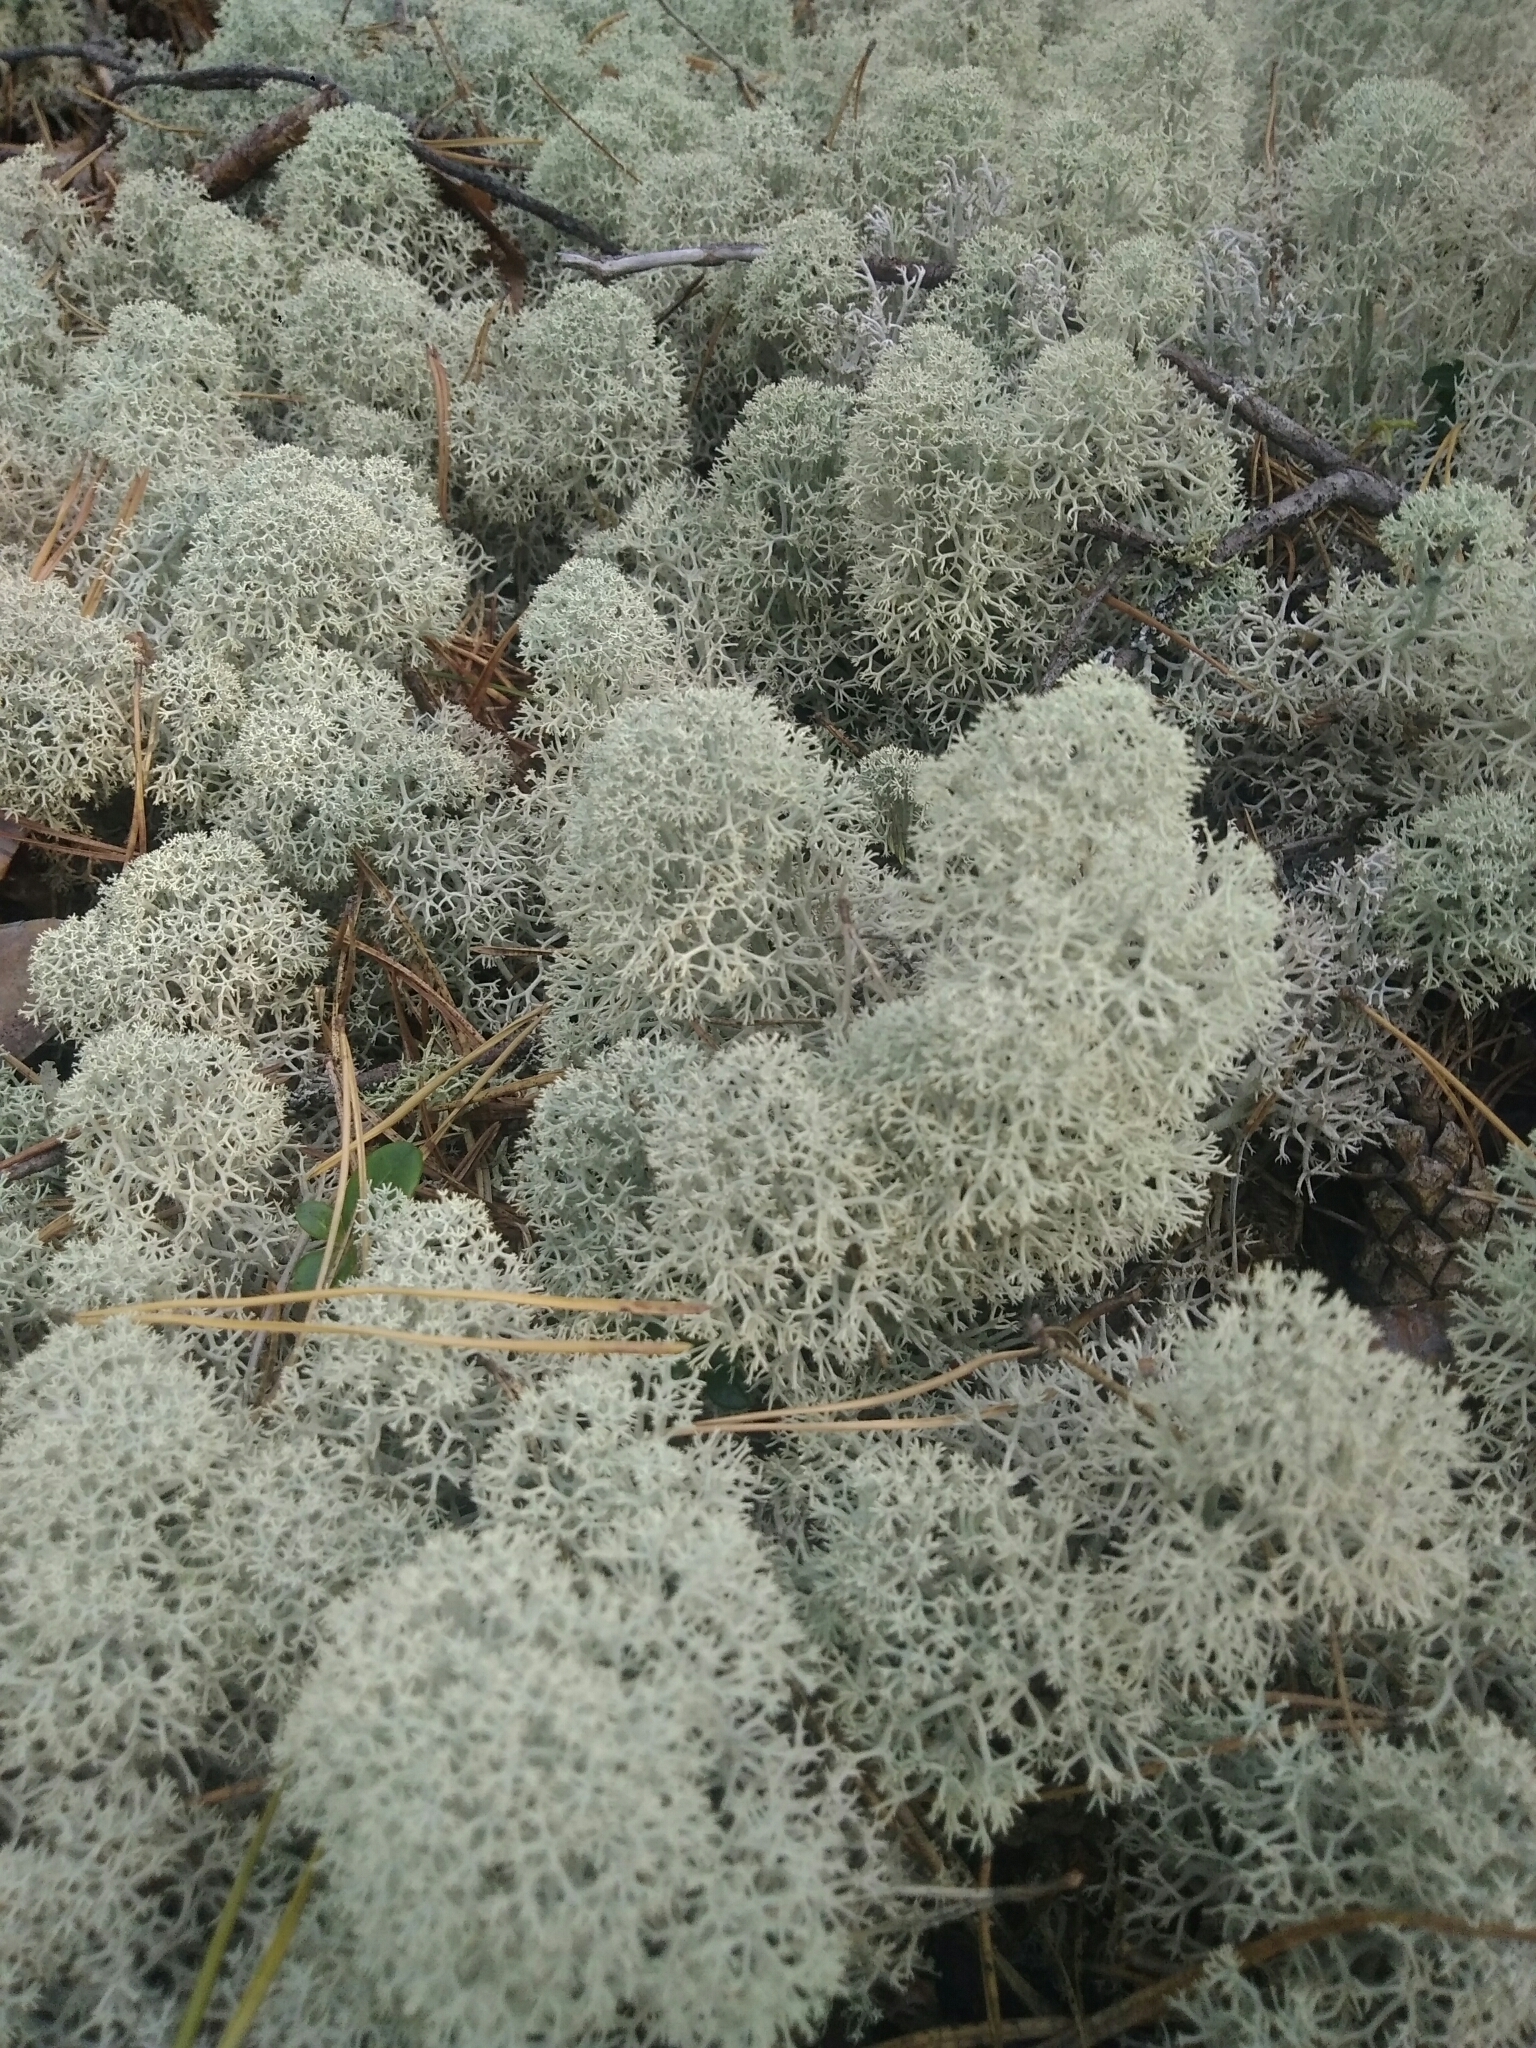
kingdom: Fungi
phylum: Ascomycota
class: Lecanoromycetes
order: Lecanorales
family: Cladoniaceae
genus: Cladonia
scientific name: Cladonia stellaris
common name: Star-tipped reindeer lichen
